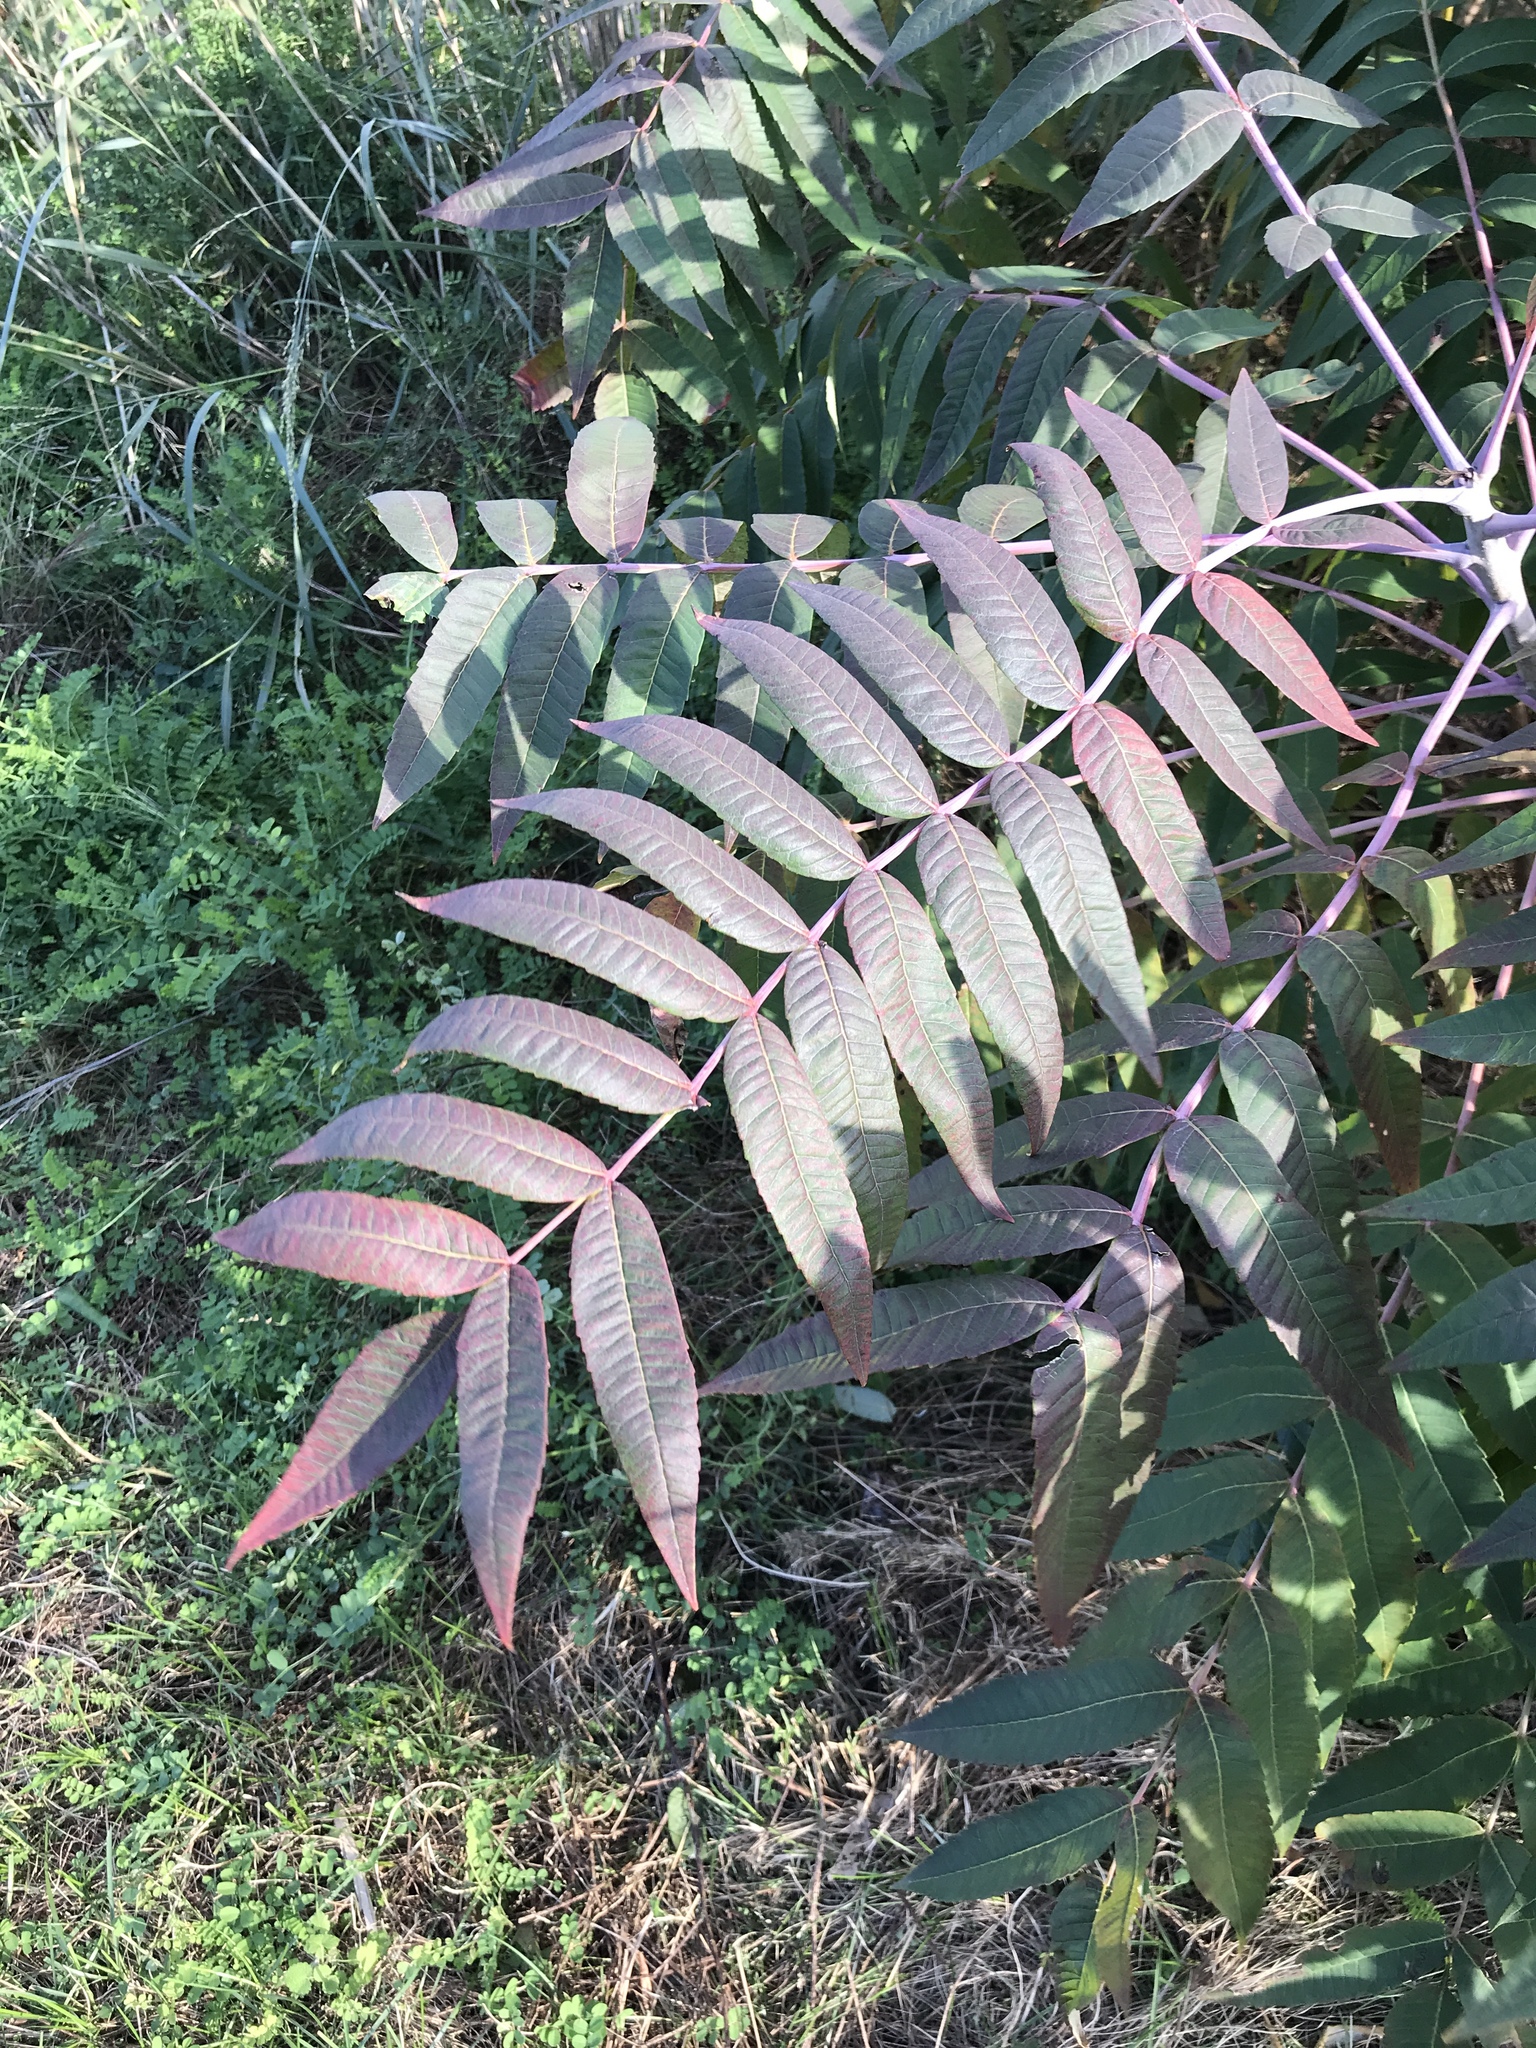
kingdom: Plantae
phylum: Tracheophyta
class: Magnoliopsida
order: Sapindales
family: Anacardiaceae
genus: Rhus
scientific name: Rhus glabra
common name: Scarlet sumac
